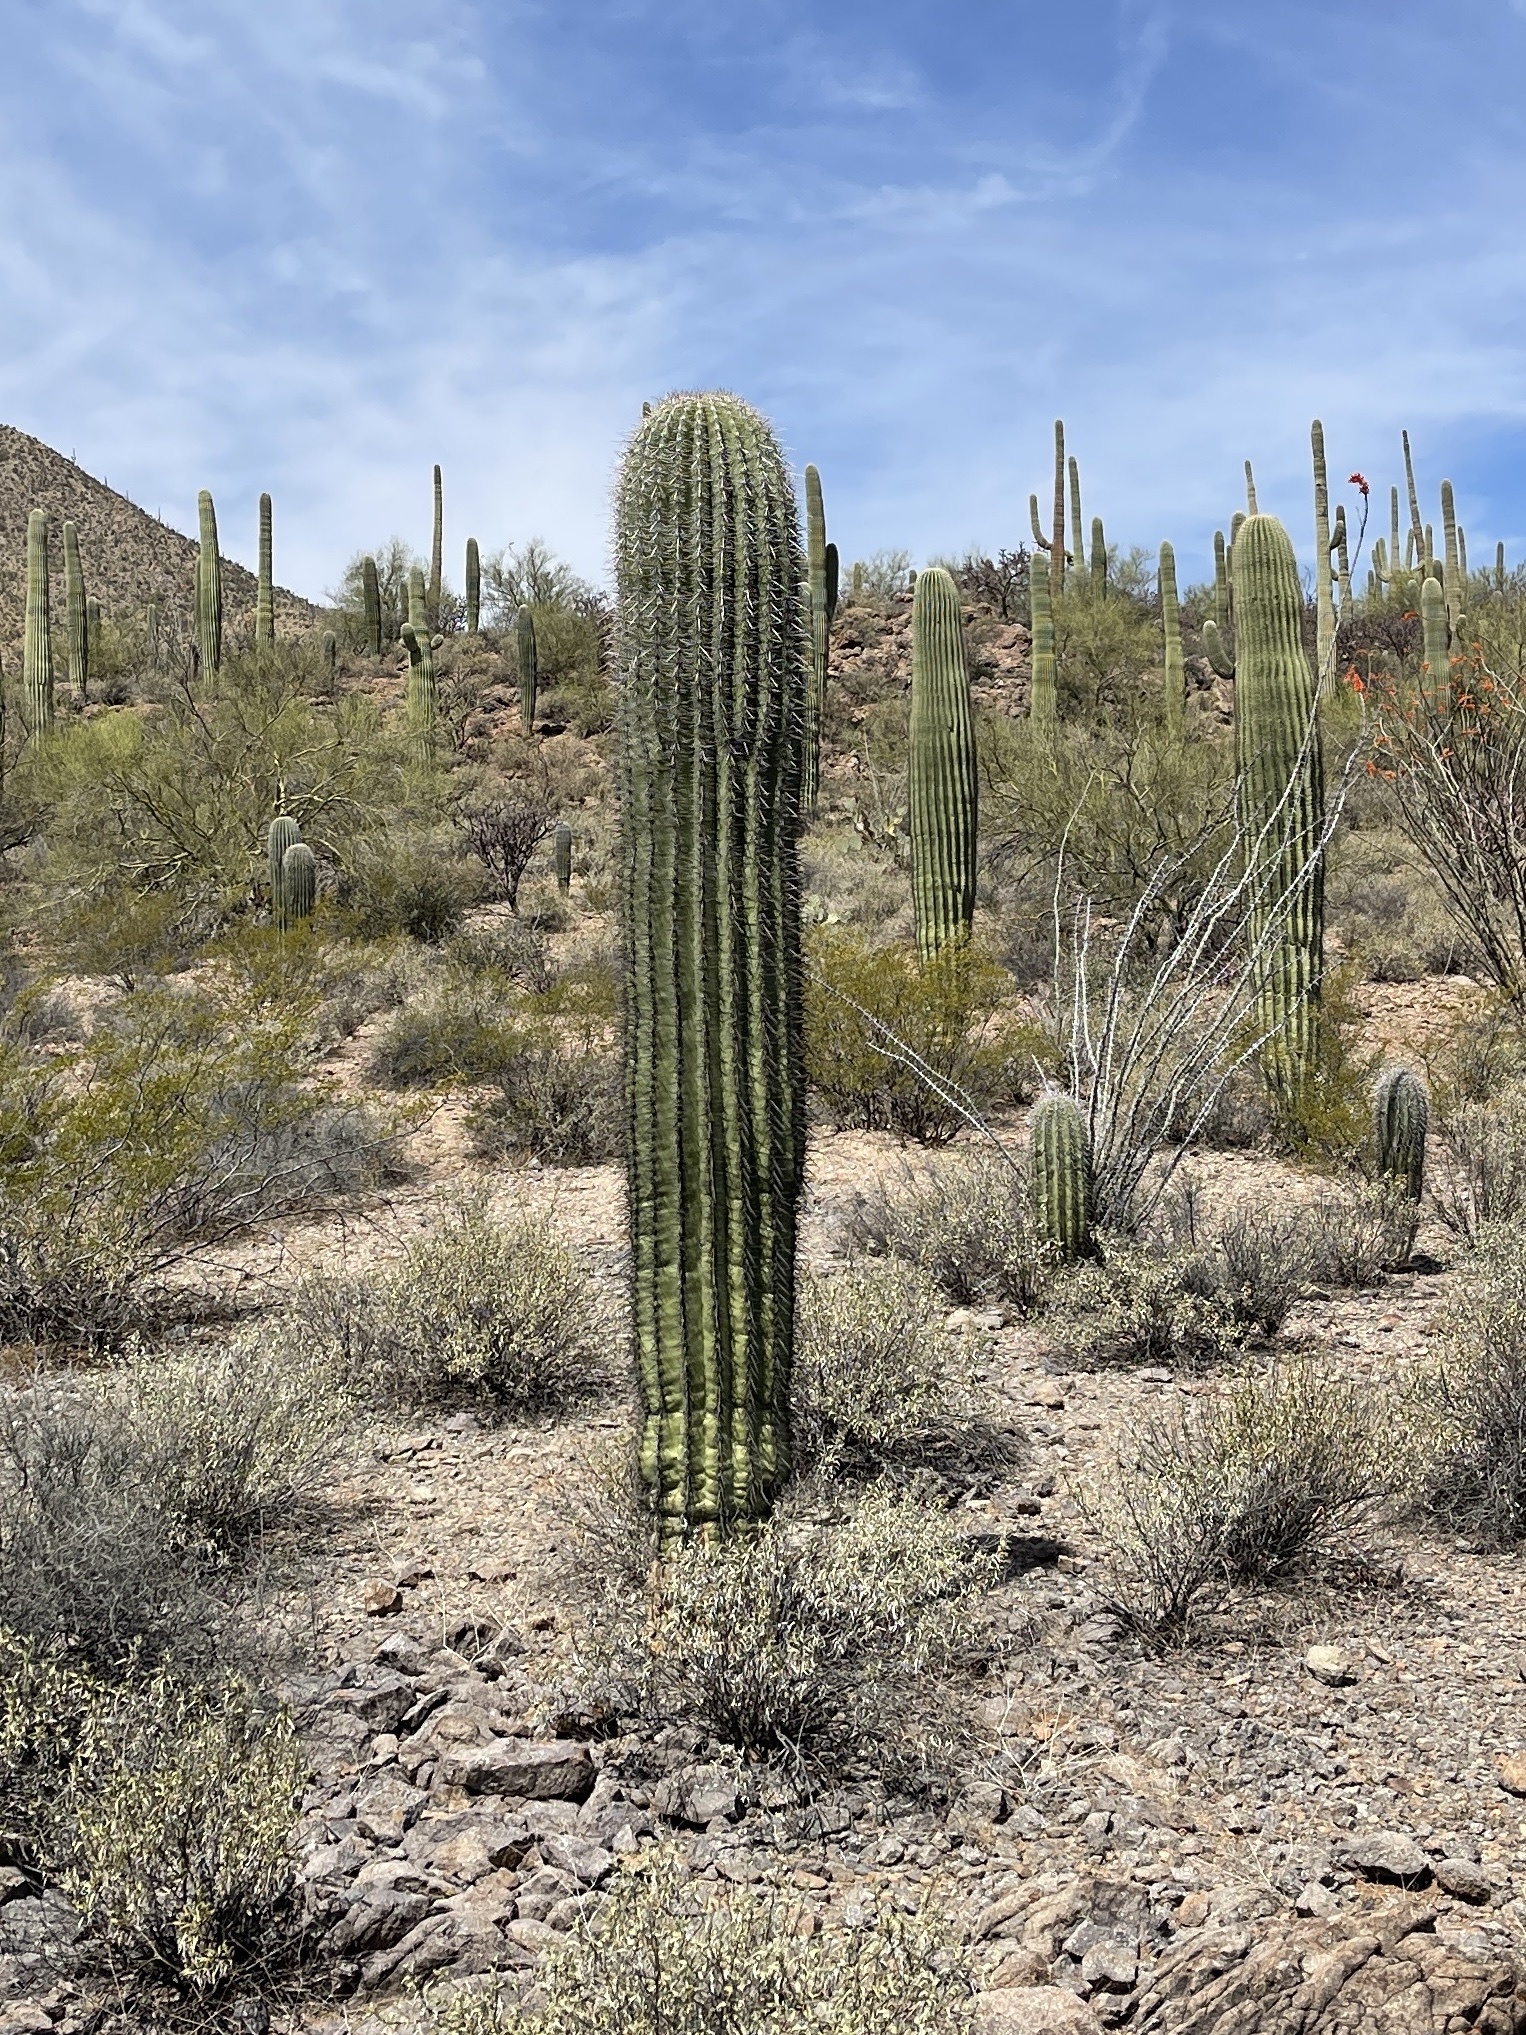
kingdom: Plantae
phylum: Tracheophyta
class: Magnoliopsida
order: Caryophyllales
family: Cactaceae
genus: Carnegiea
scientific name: Carnegiea gigantea
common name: Saguaro
